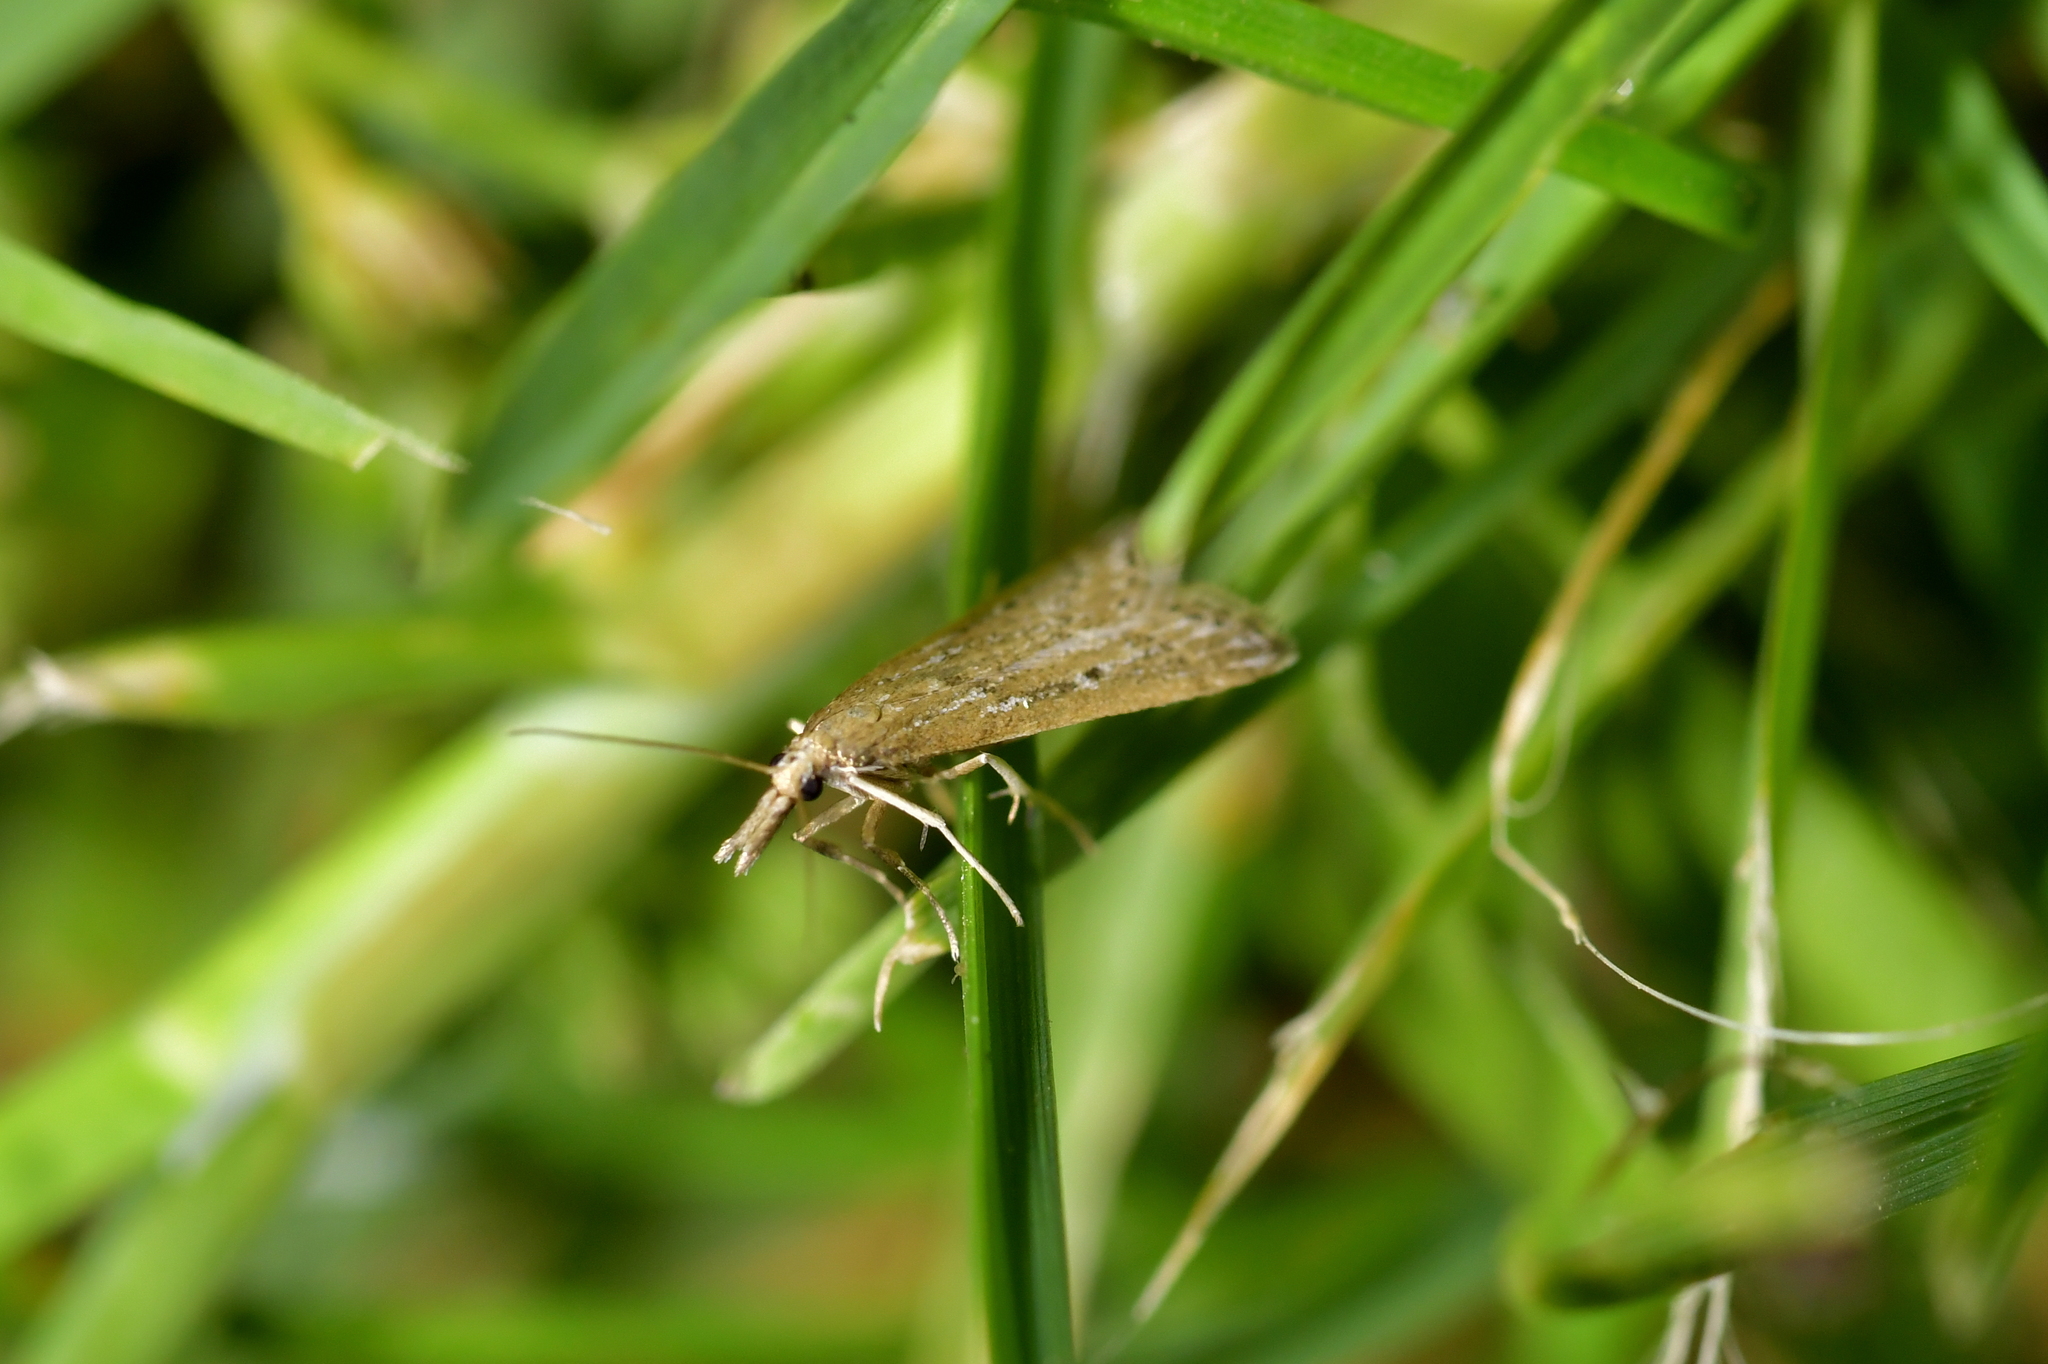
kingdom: Animalia
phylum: Arthropoda
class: Insecta
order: Lepidoptera
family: Crambidae
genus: Antiscopa
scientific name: Antiscopa elaphra
